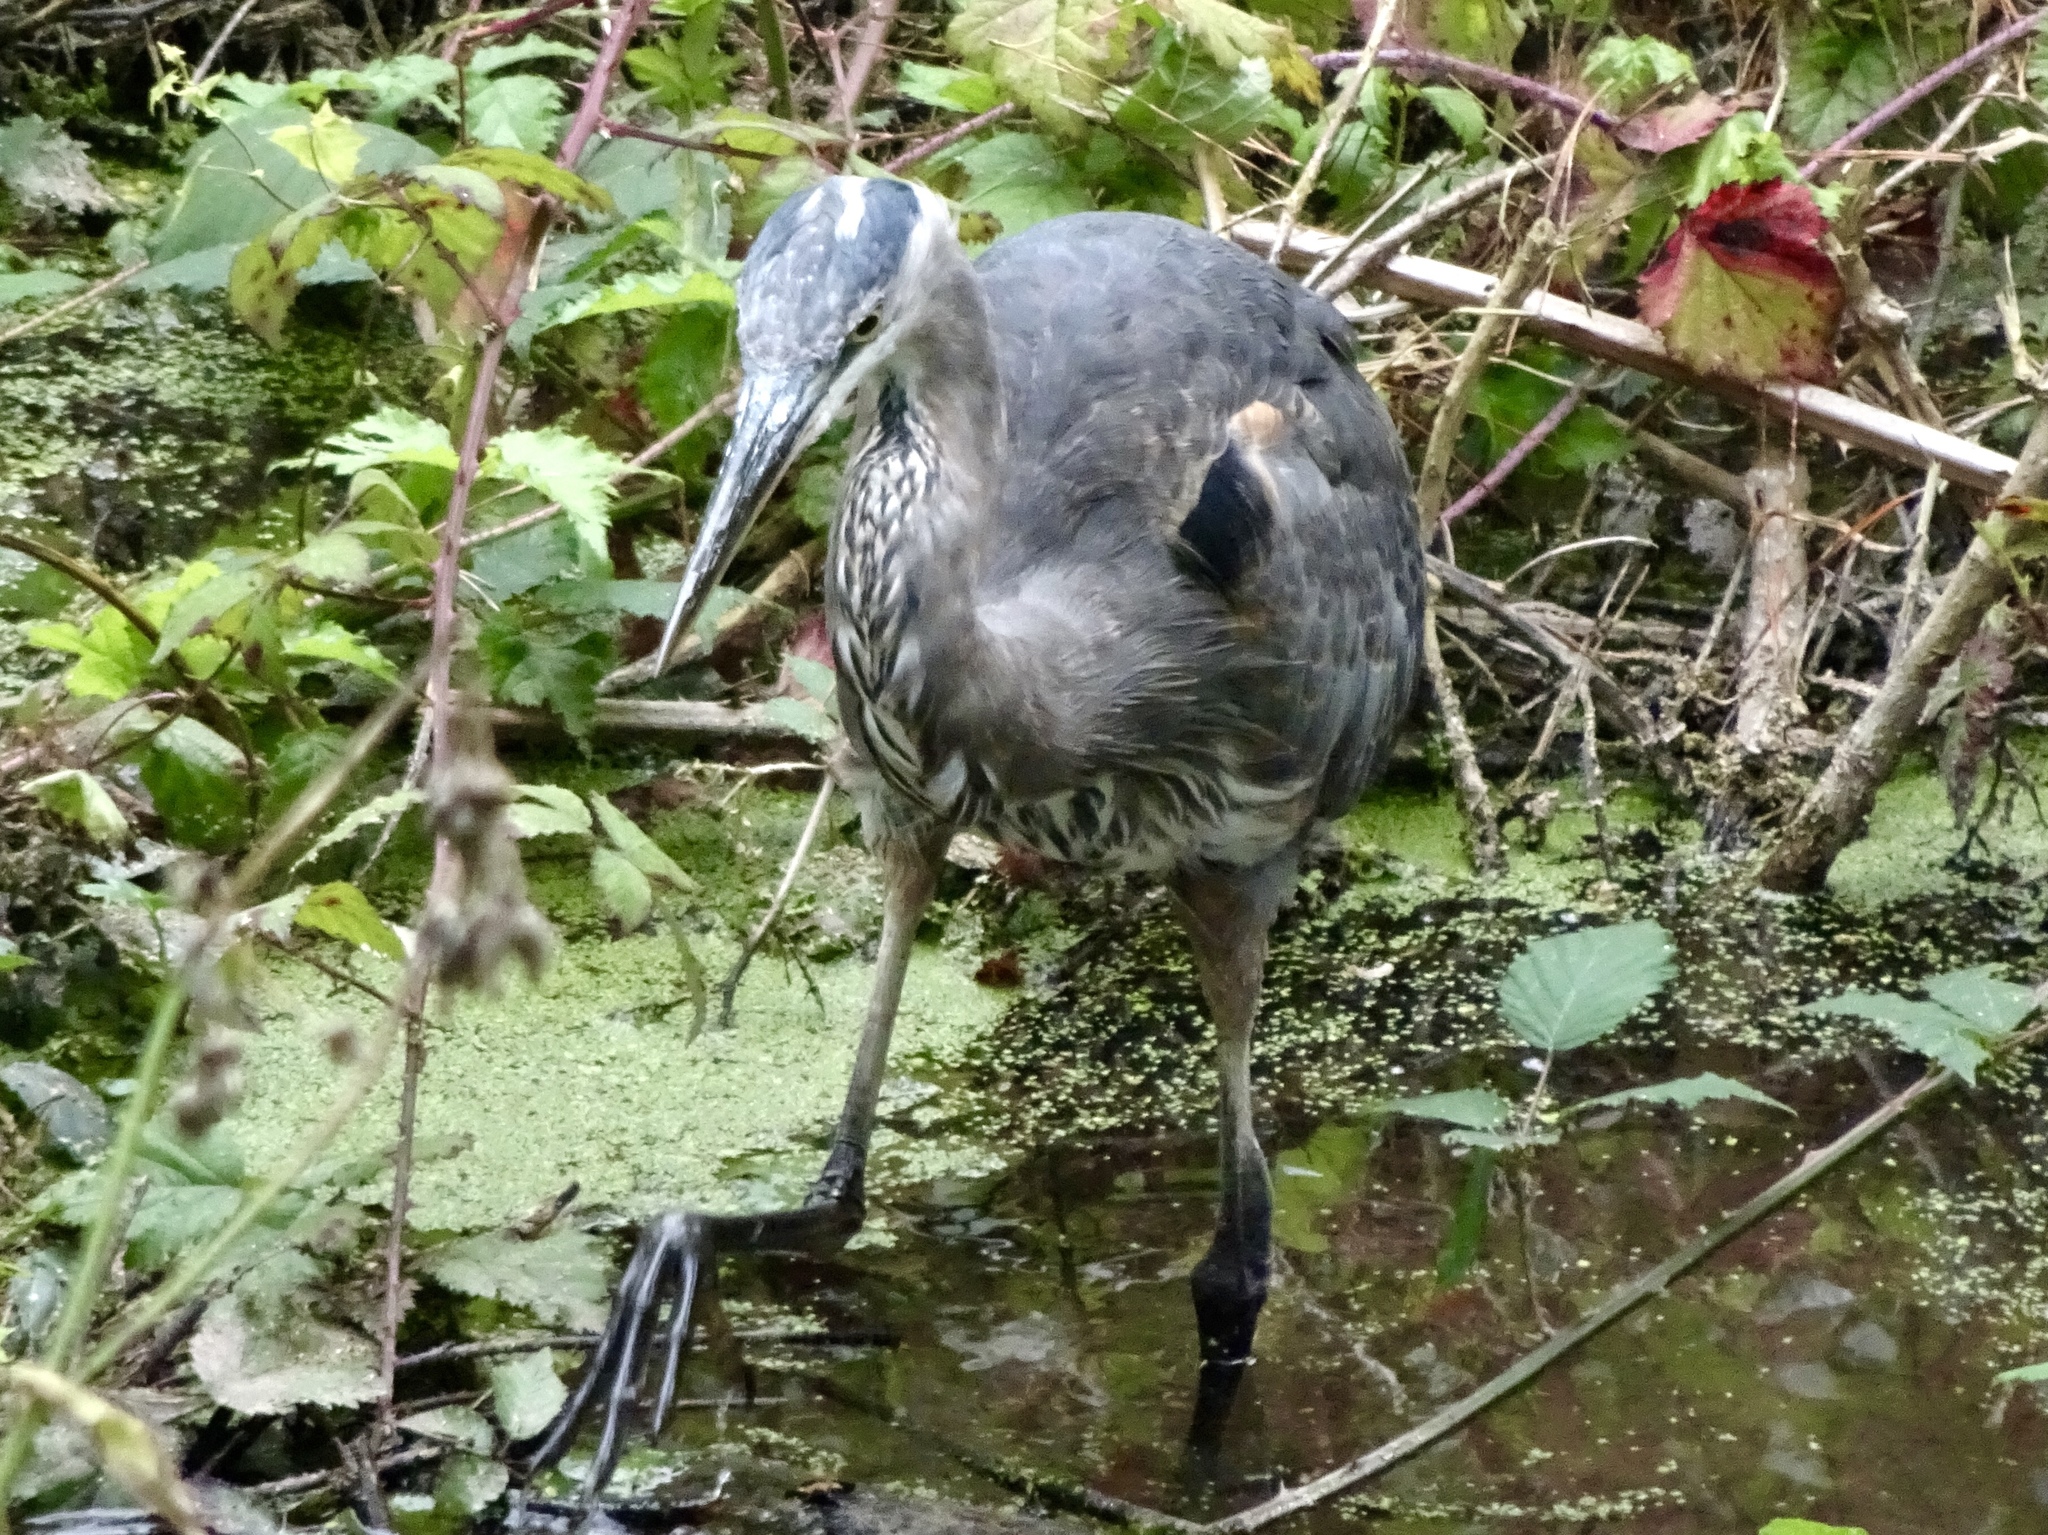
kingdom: Animalia
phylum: Chordata
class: Aves
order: Pelecaniformes
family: Ardeidae
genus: Ardea
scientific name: Ardea herodias
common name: Great blue heron
